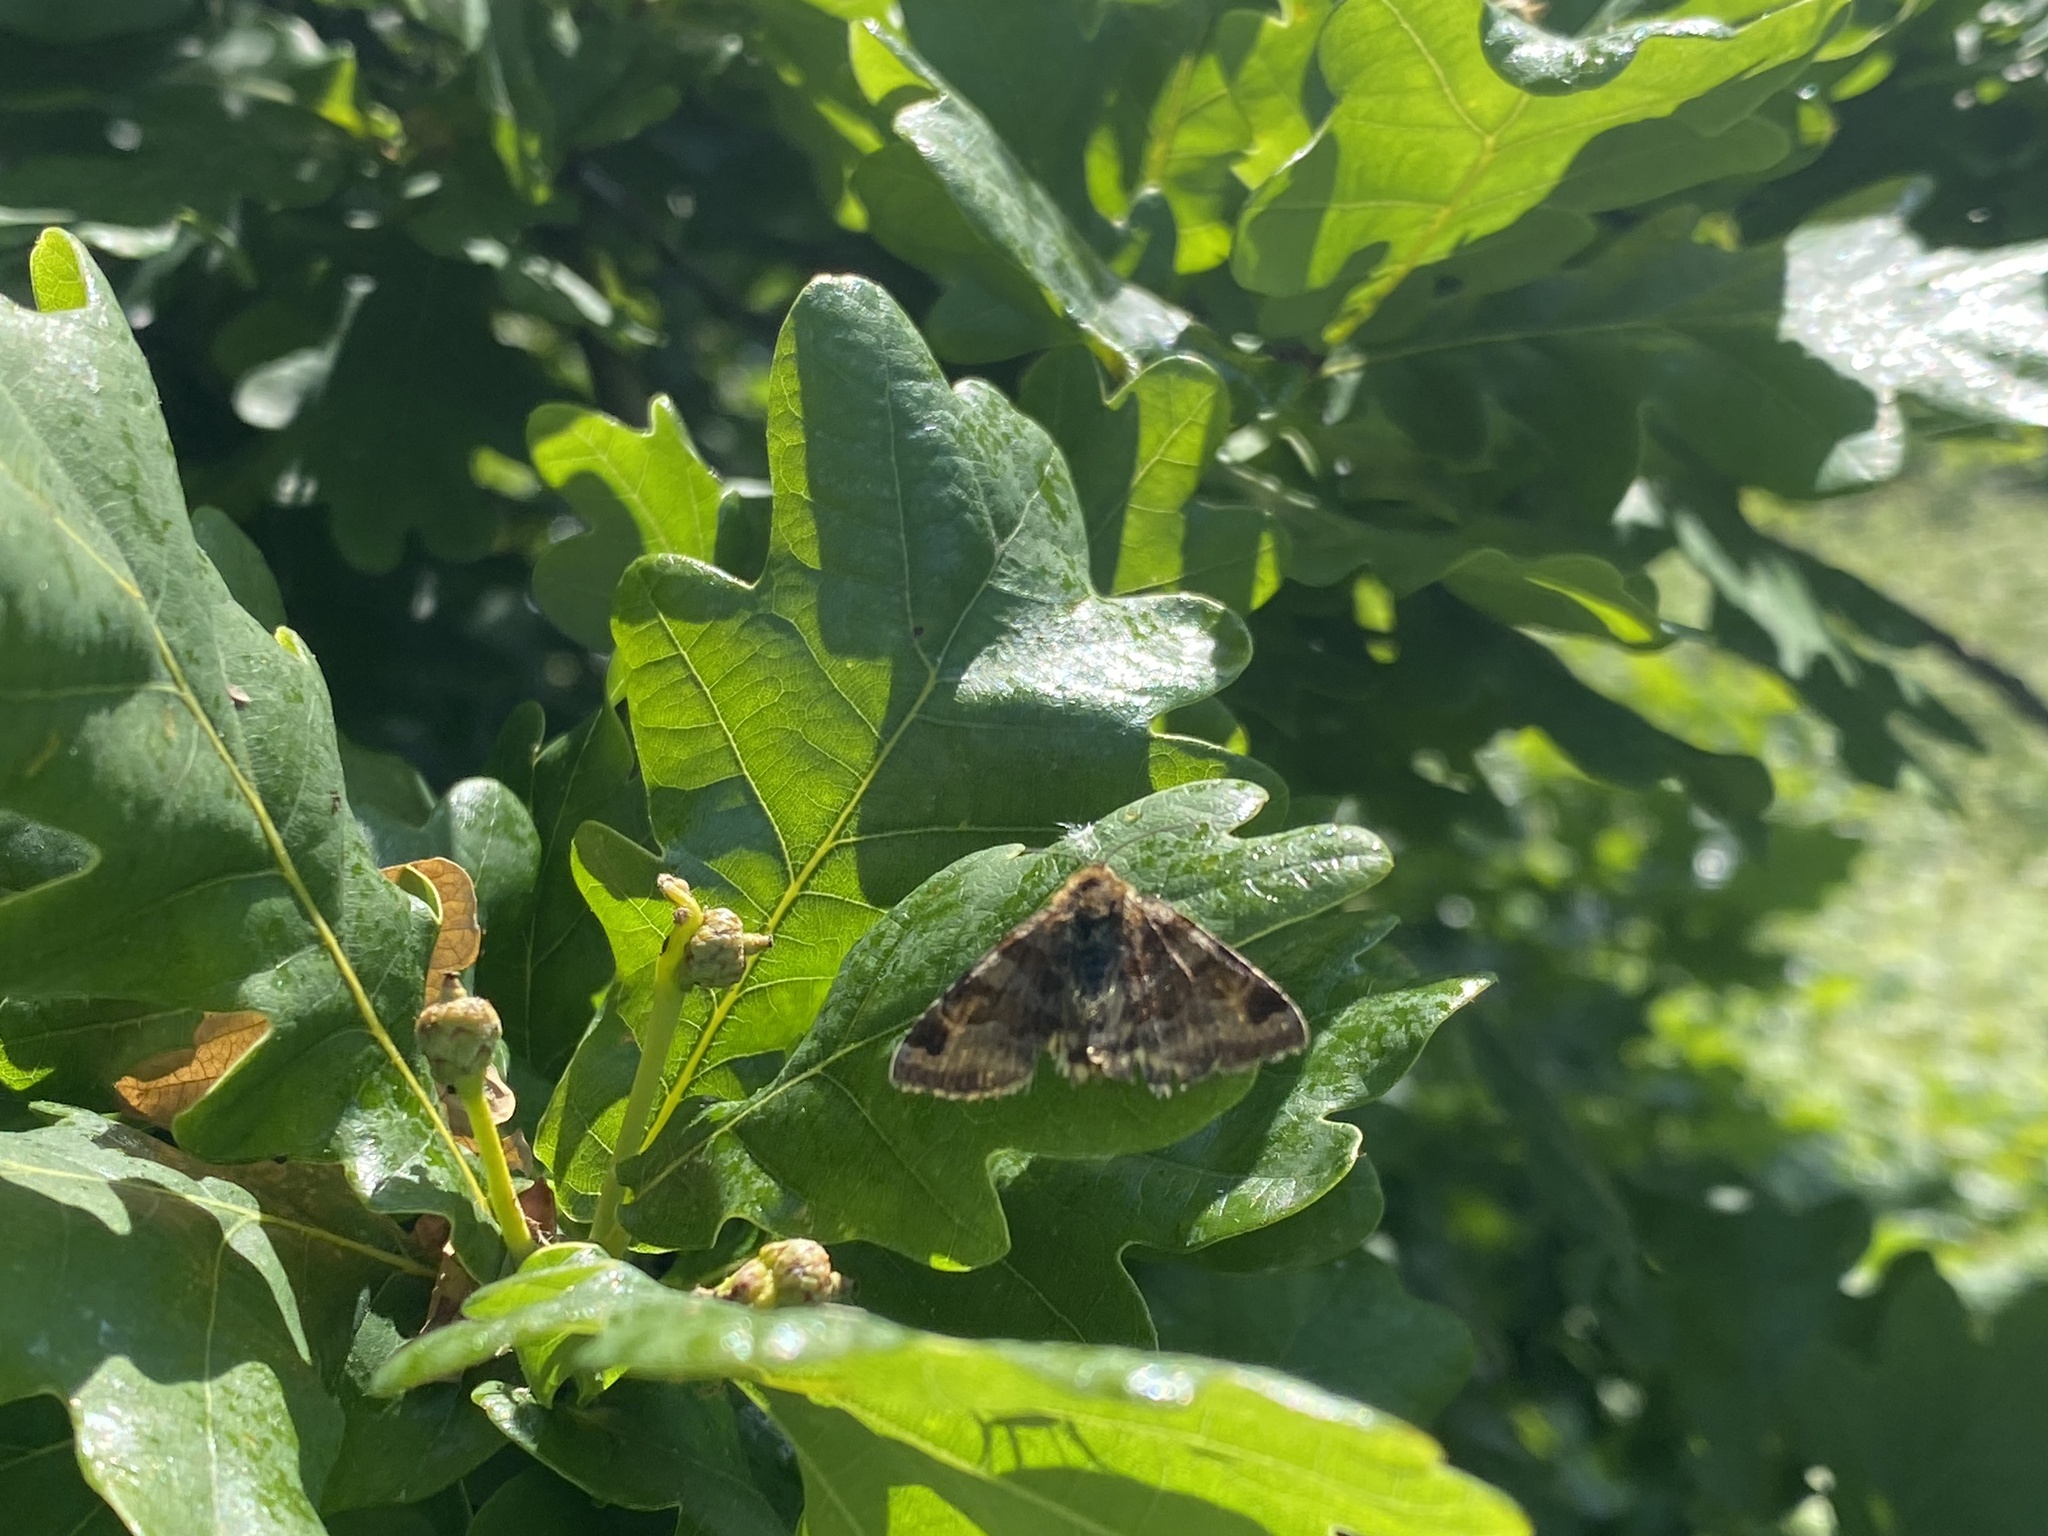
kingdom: Animalia
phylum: Arthropoda
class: Insecta
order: Lepidoptera
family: Erebidae
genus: Euclidia
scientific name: Euclidia glyphica
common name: Burnet companion
